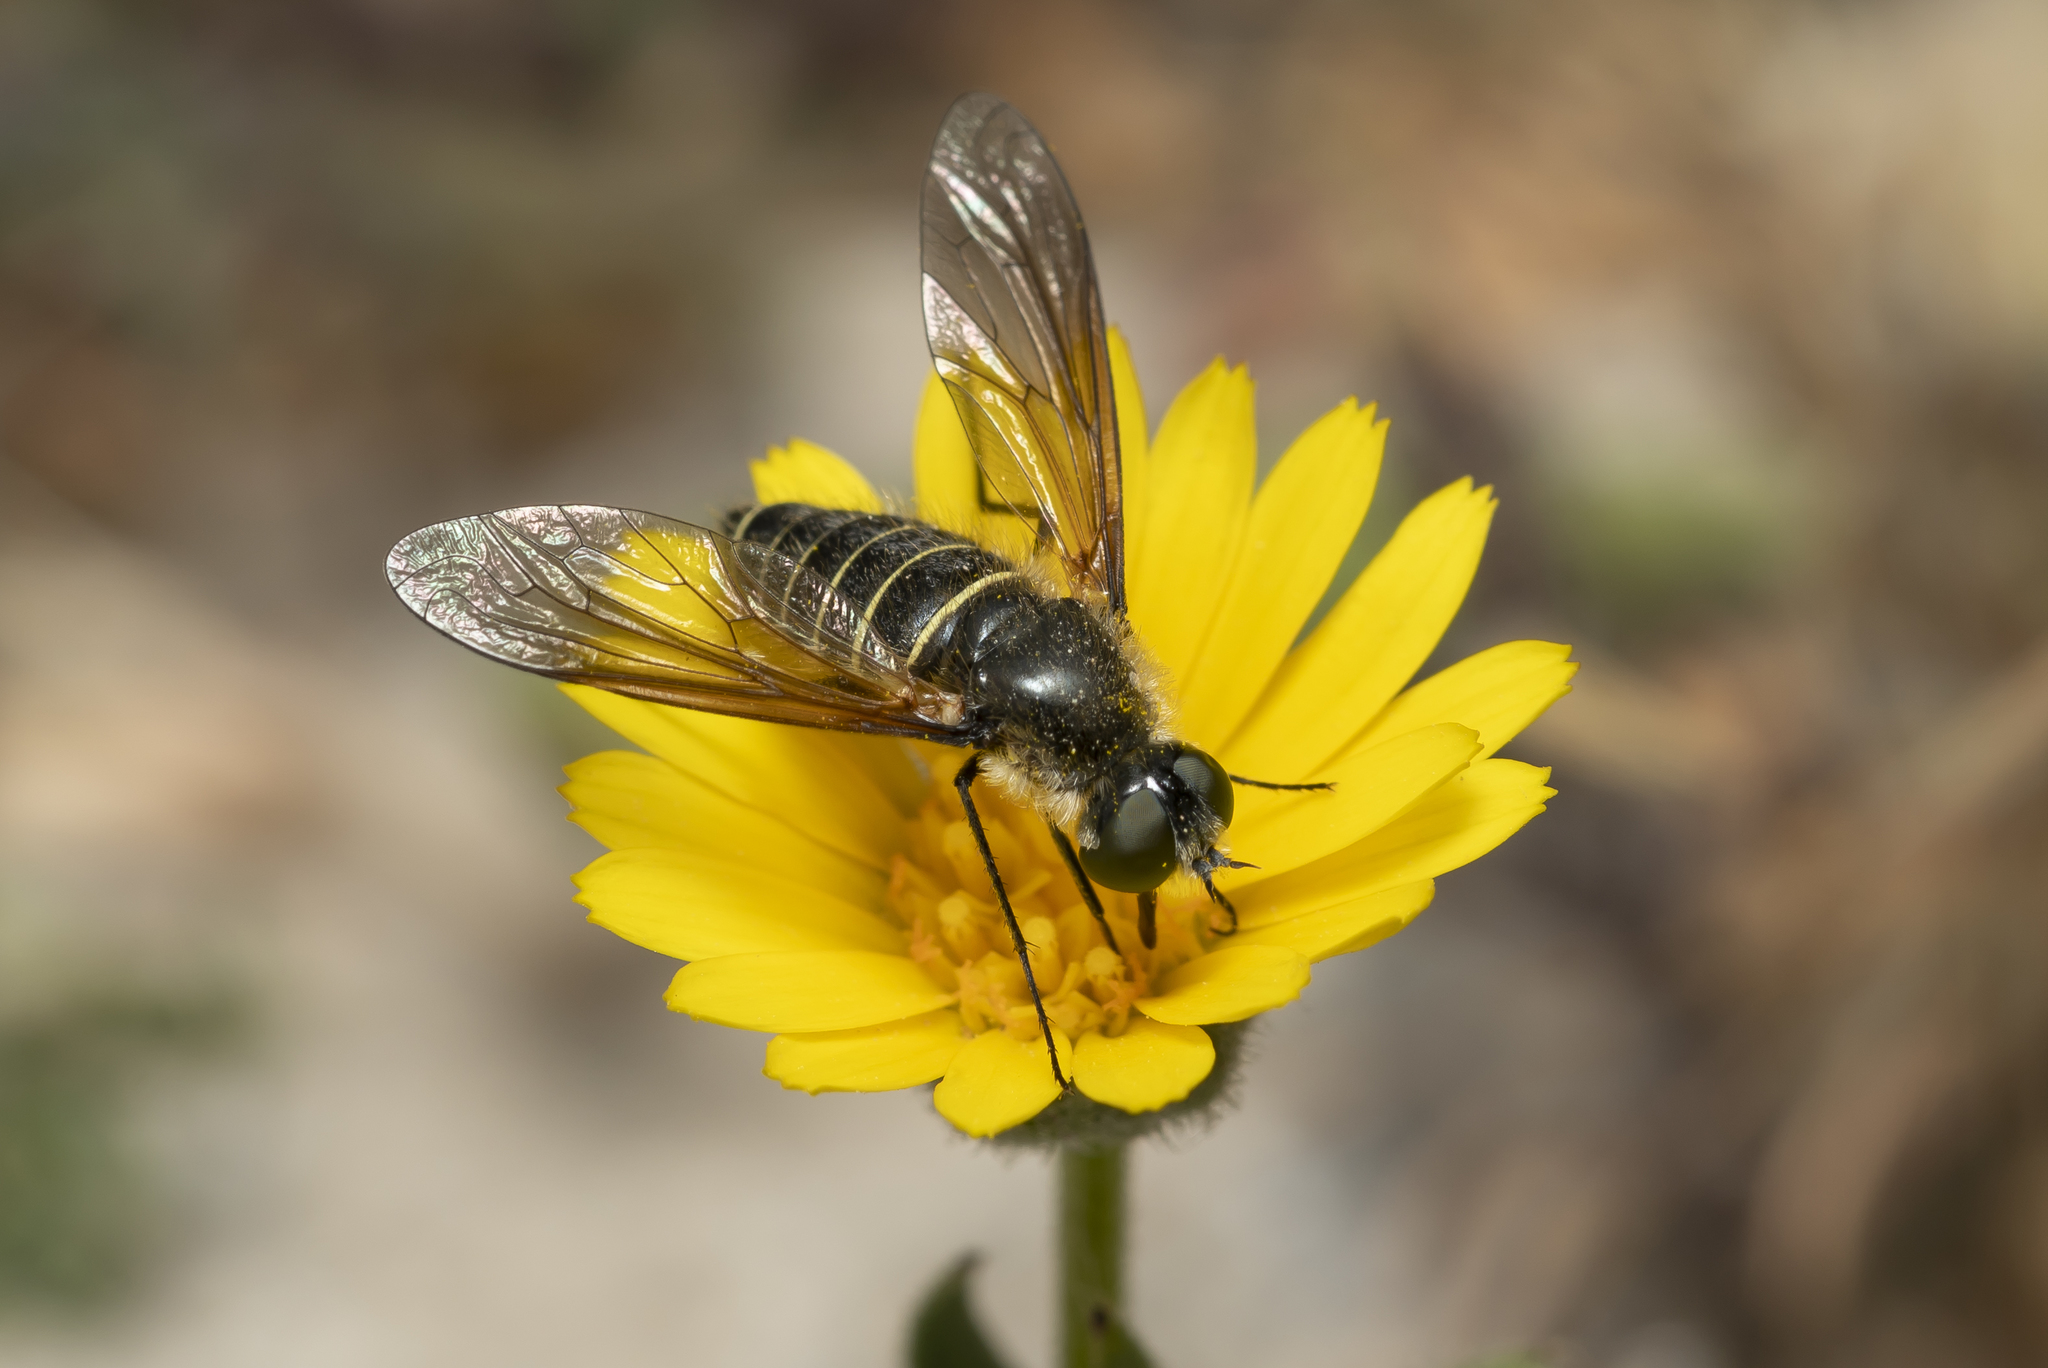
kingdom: Animalia
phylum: Arthropoda
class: Insecta
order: Diptera
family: Bombyliidae
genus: Lomatia
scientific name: Lomatia fasciculata
